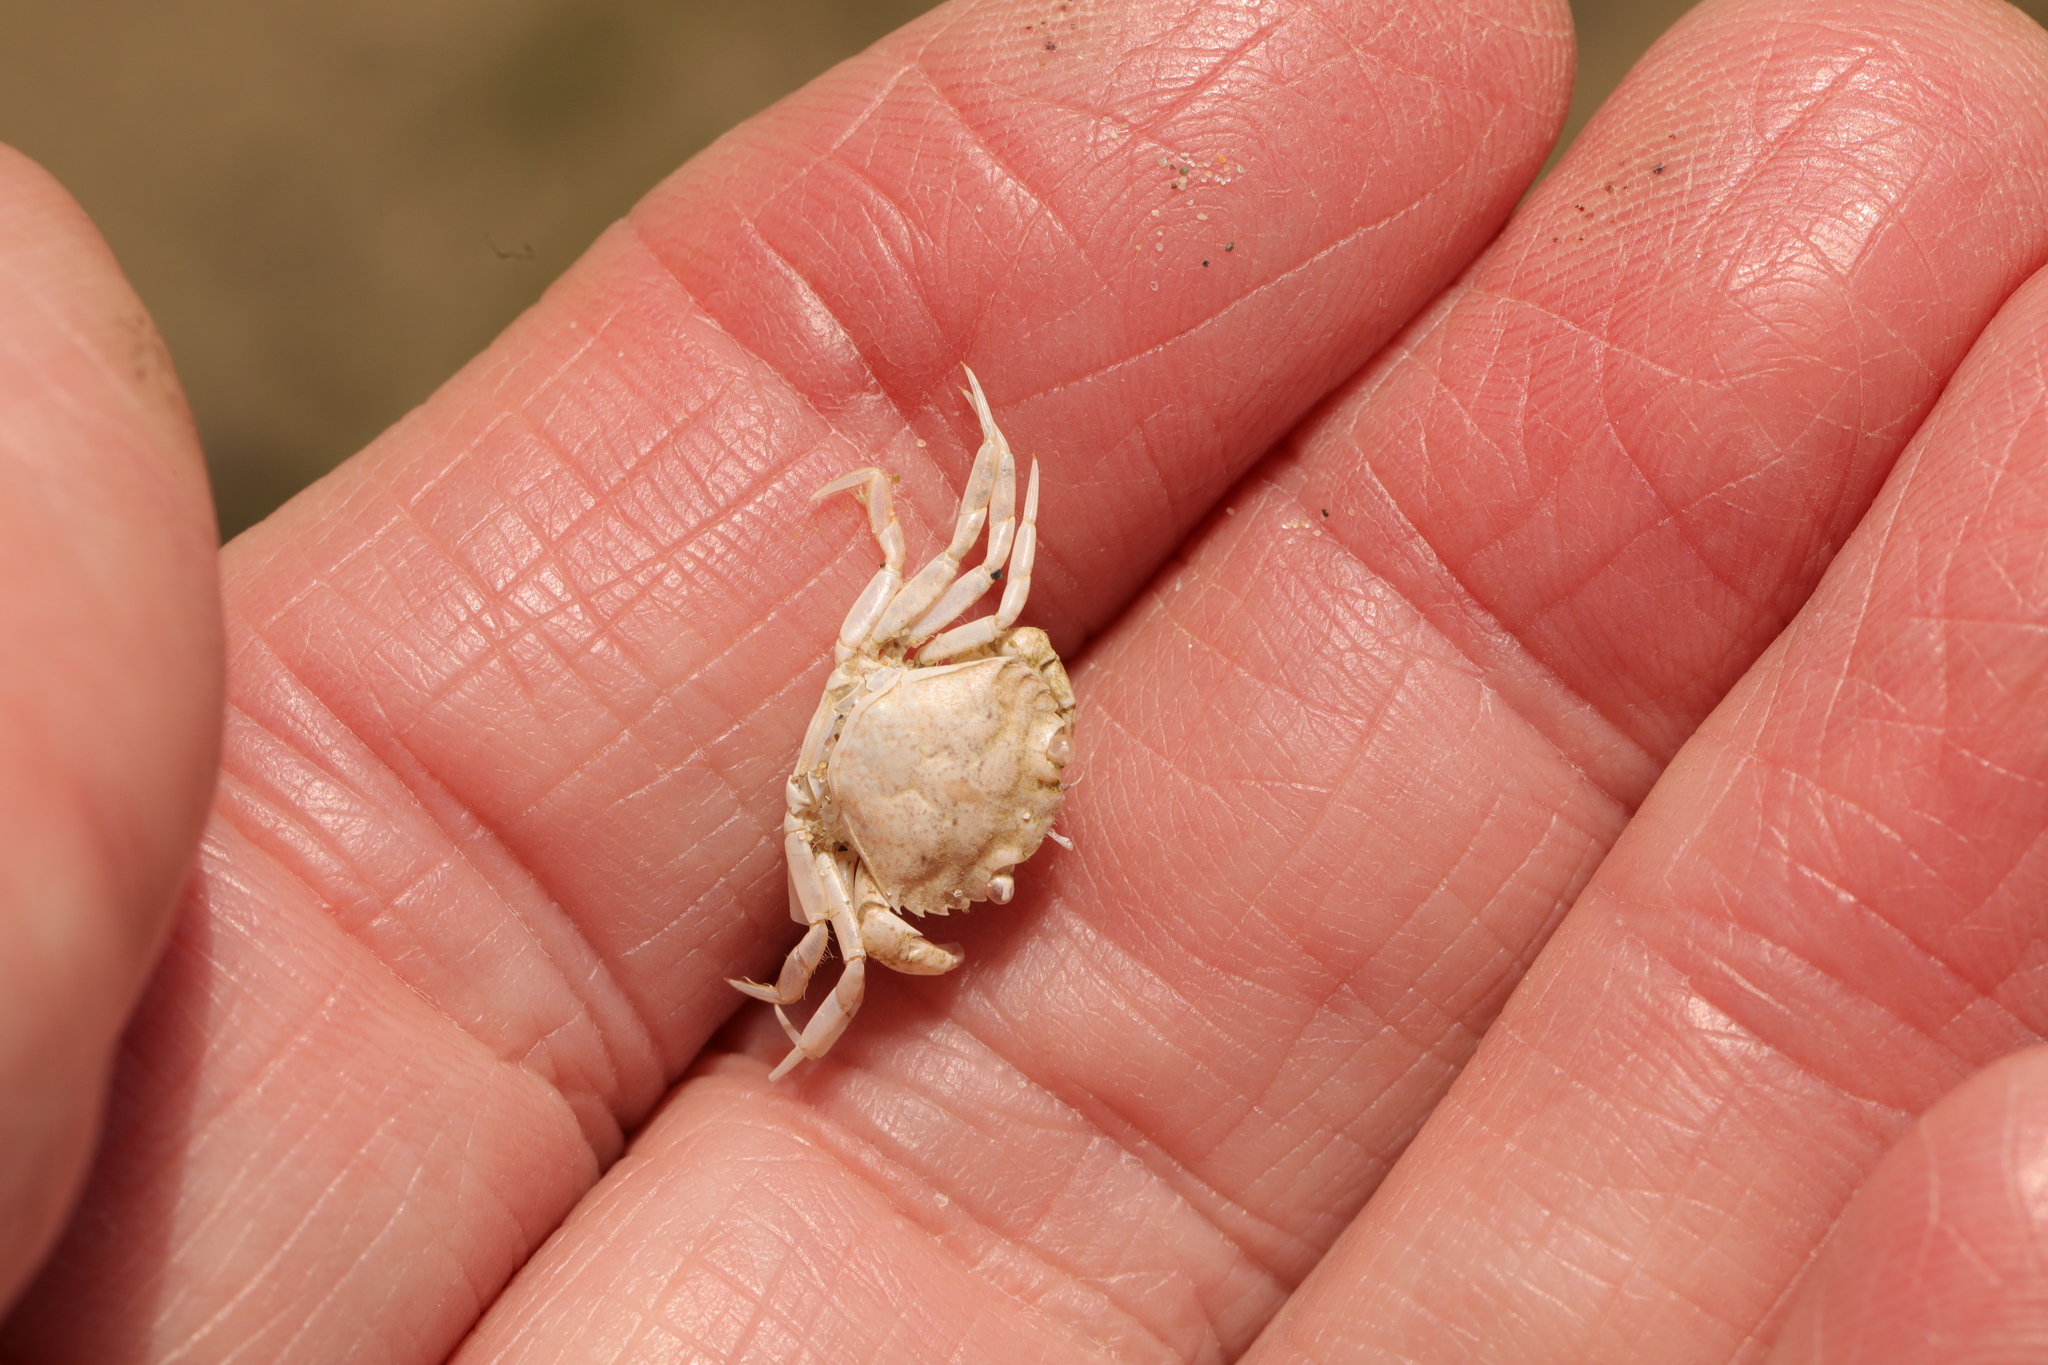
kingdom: Animalia
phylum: Arthropoda
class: Malacostraca
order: Decapoda
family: Carcinidae
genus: Carcinus
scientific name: Carcinus maenas
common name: European green crab
